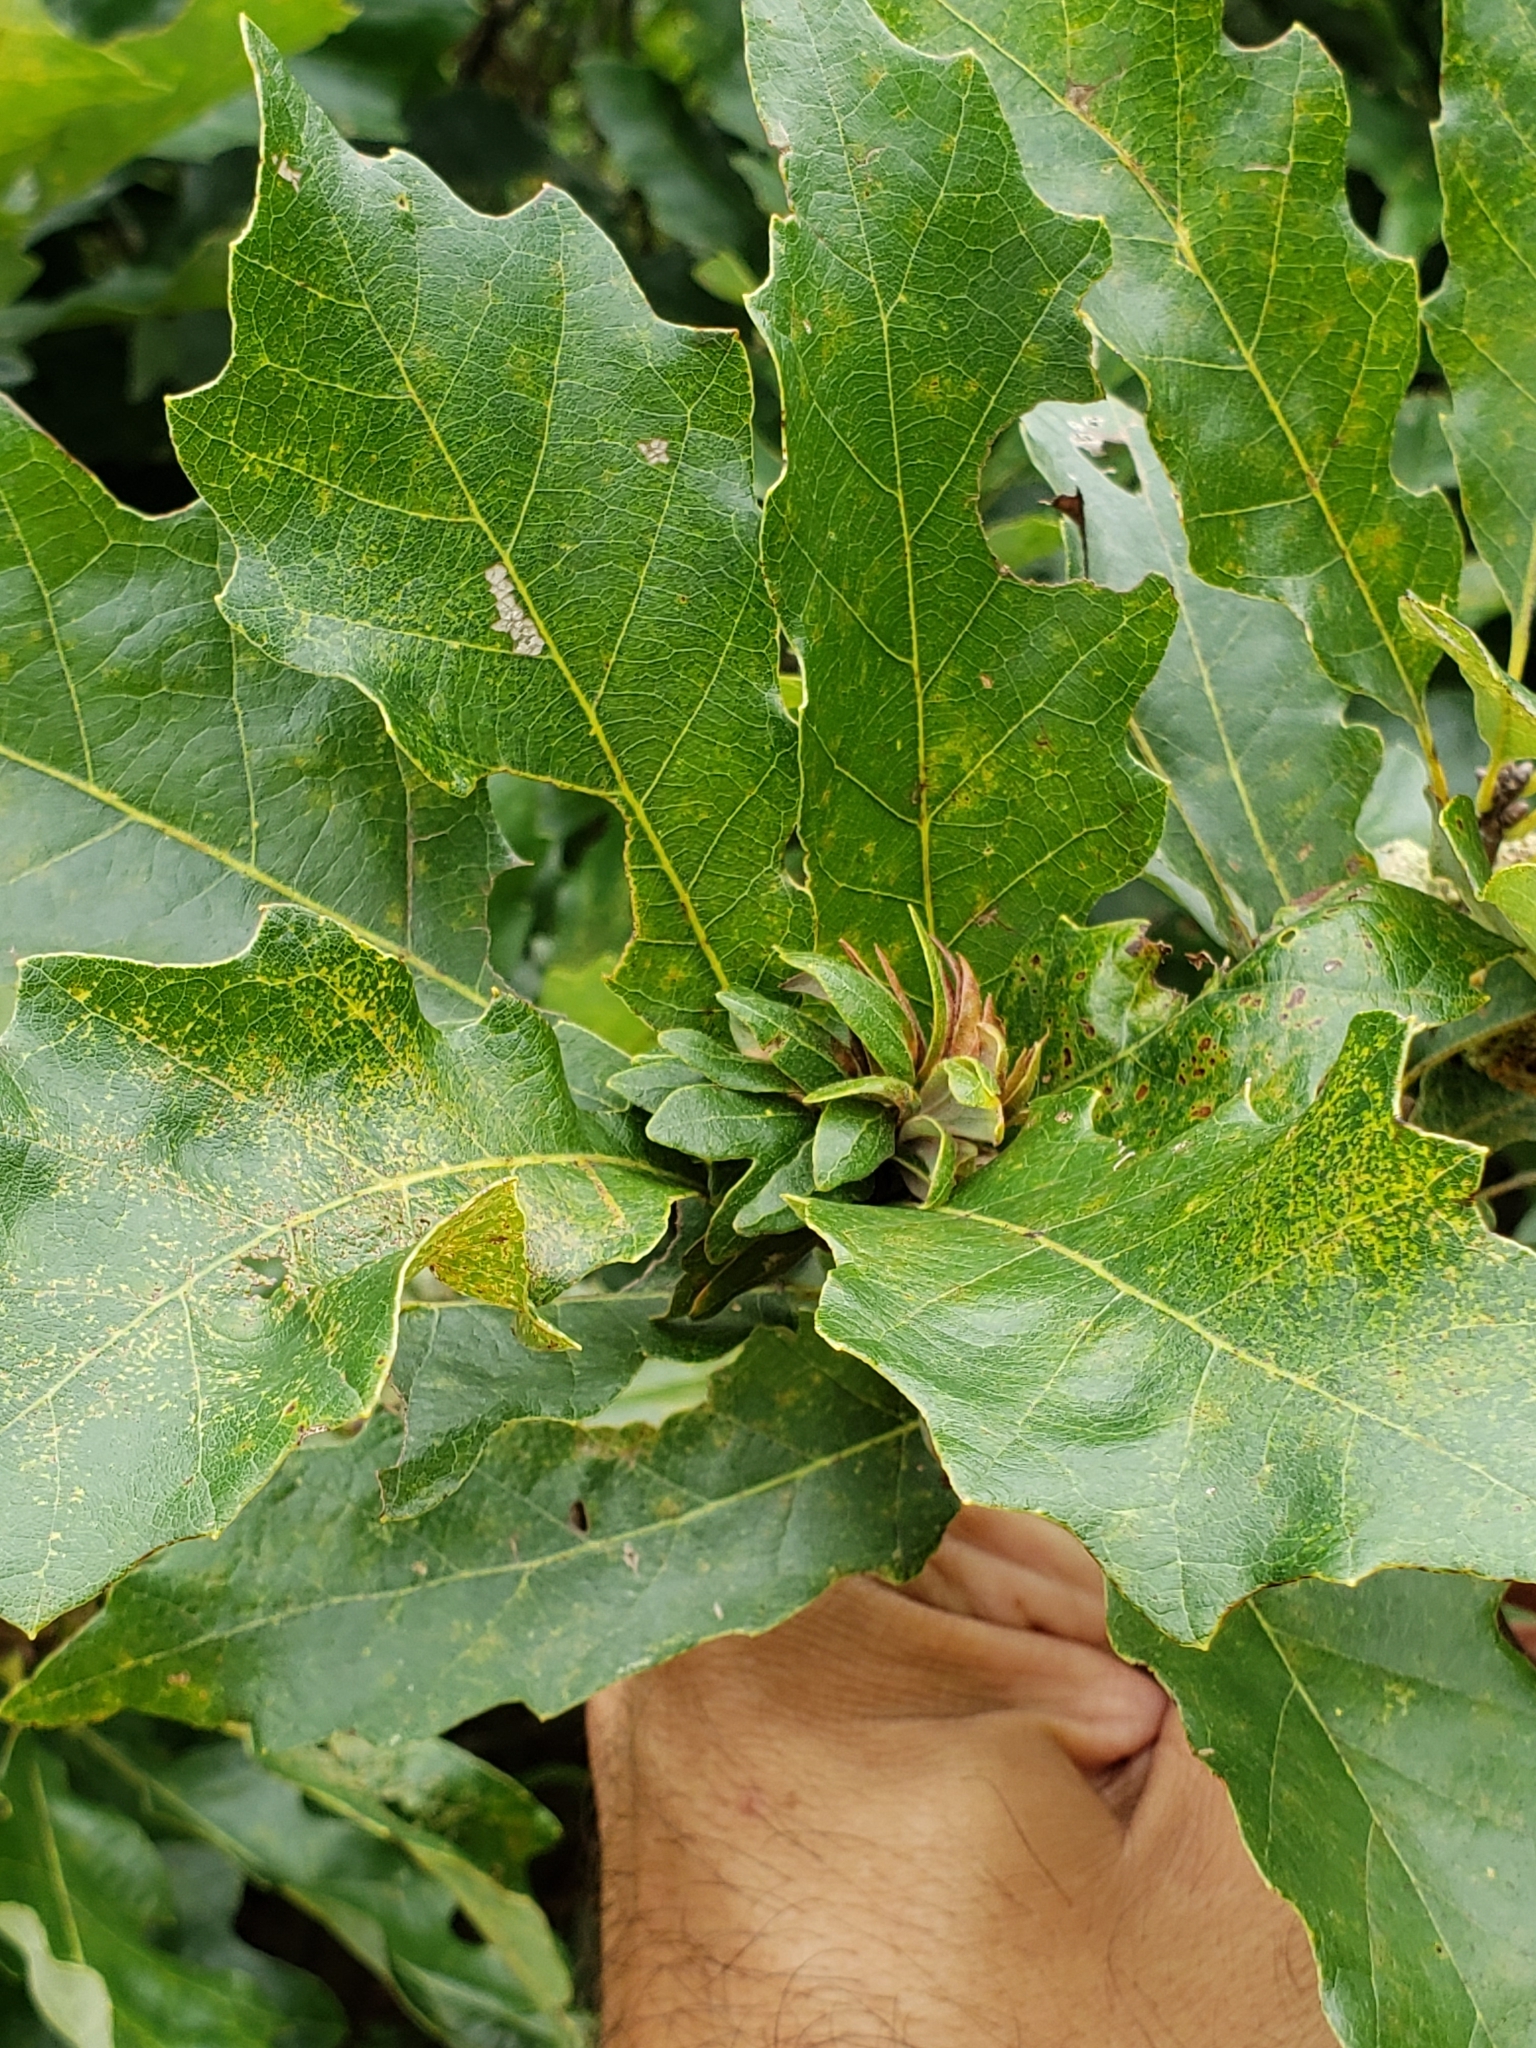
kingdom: Animalia
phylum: Arthropoda
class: Insecta
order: Hymenoptera
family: Cynipidae
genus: Andricus
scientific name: Andricus
